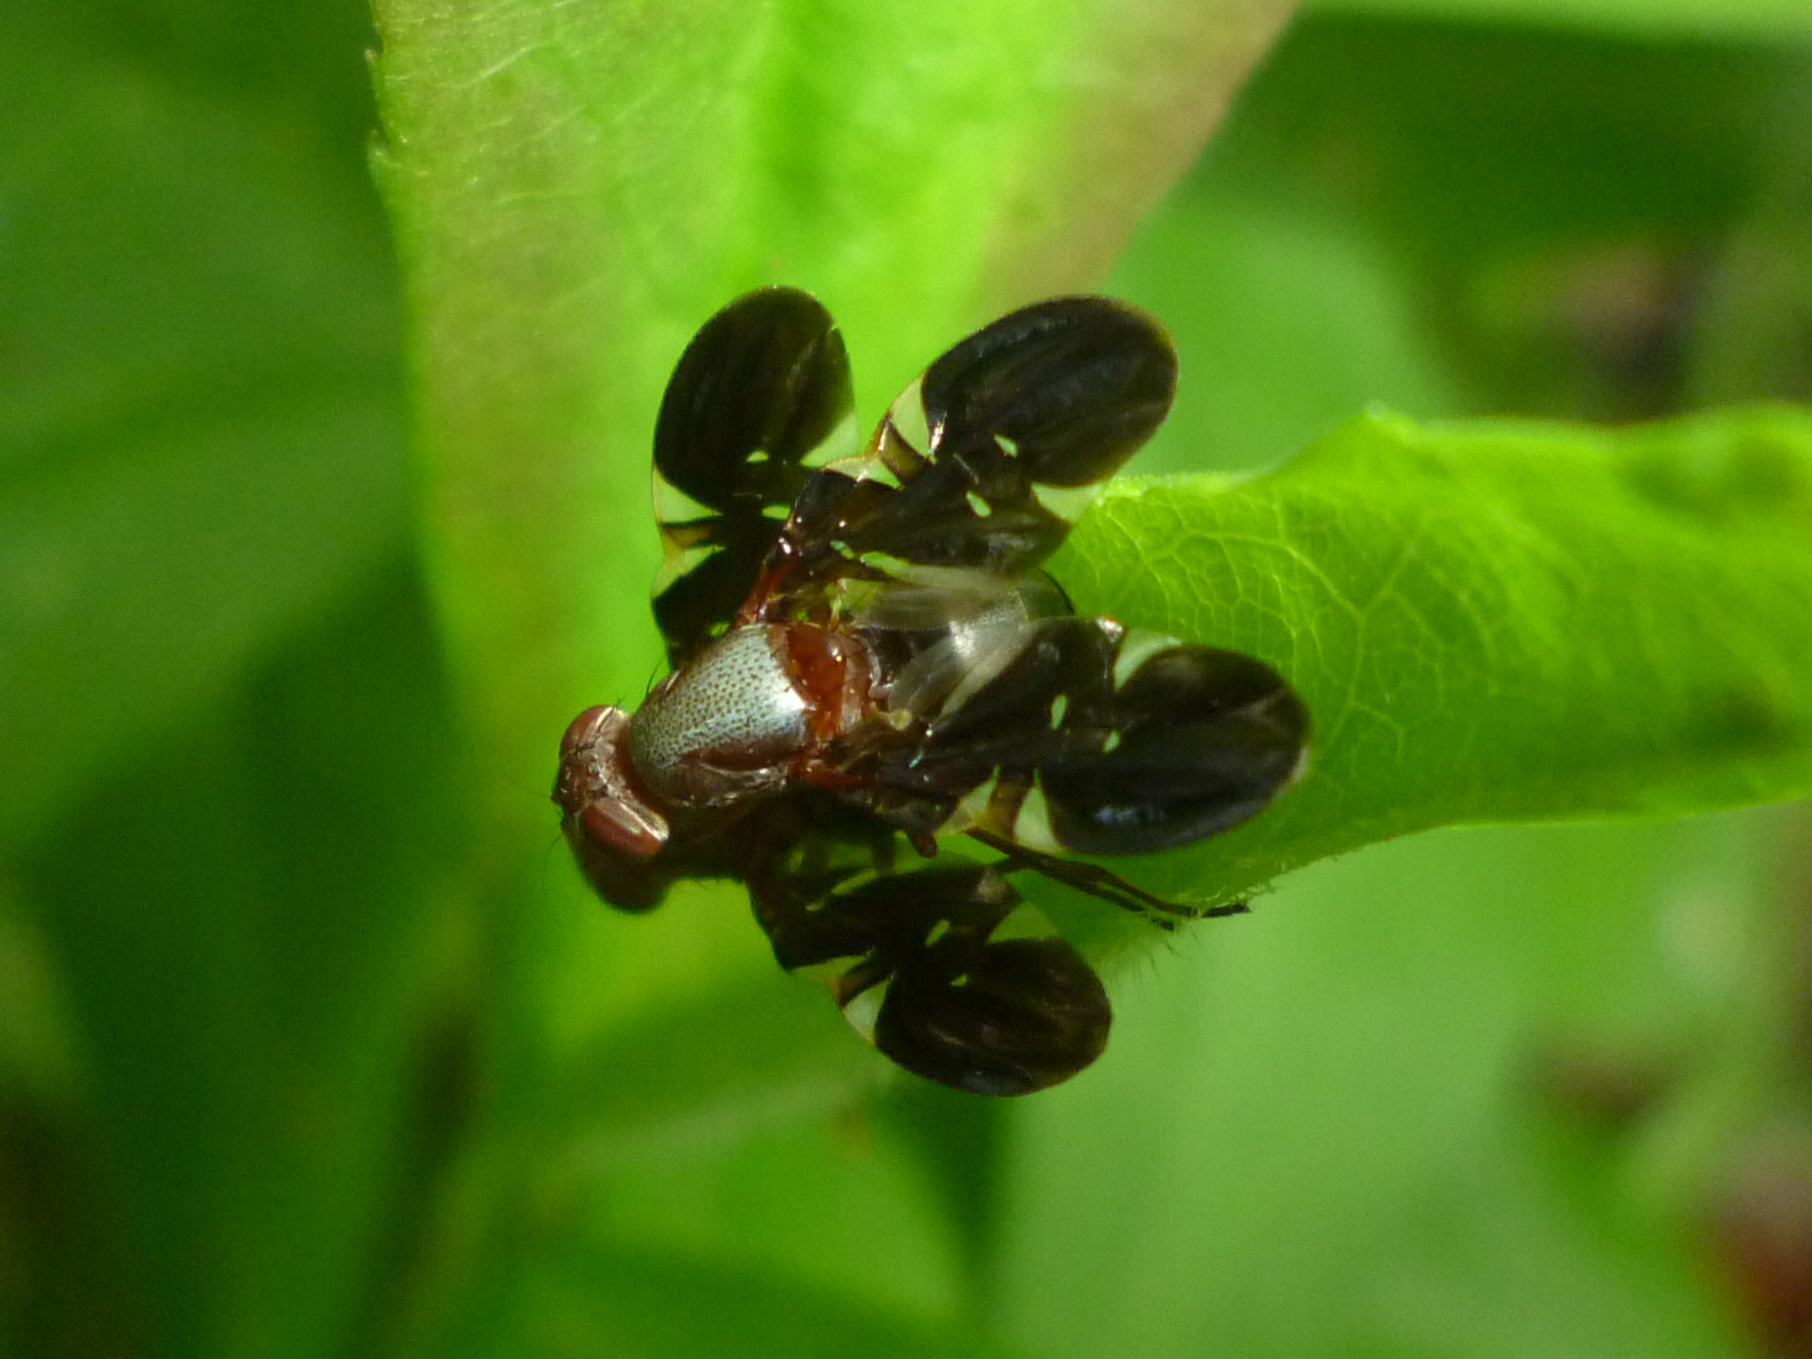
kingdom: Animalia
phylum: Arthropoda
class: Insecta
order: Diptera
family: Ulidiidae
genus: Delphinia
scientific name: Delphinia picta
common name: Common picture-winged fly
